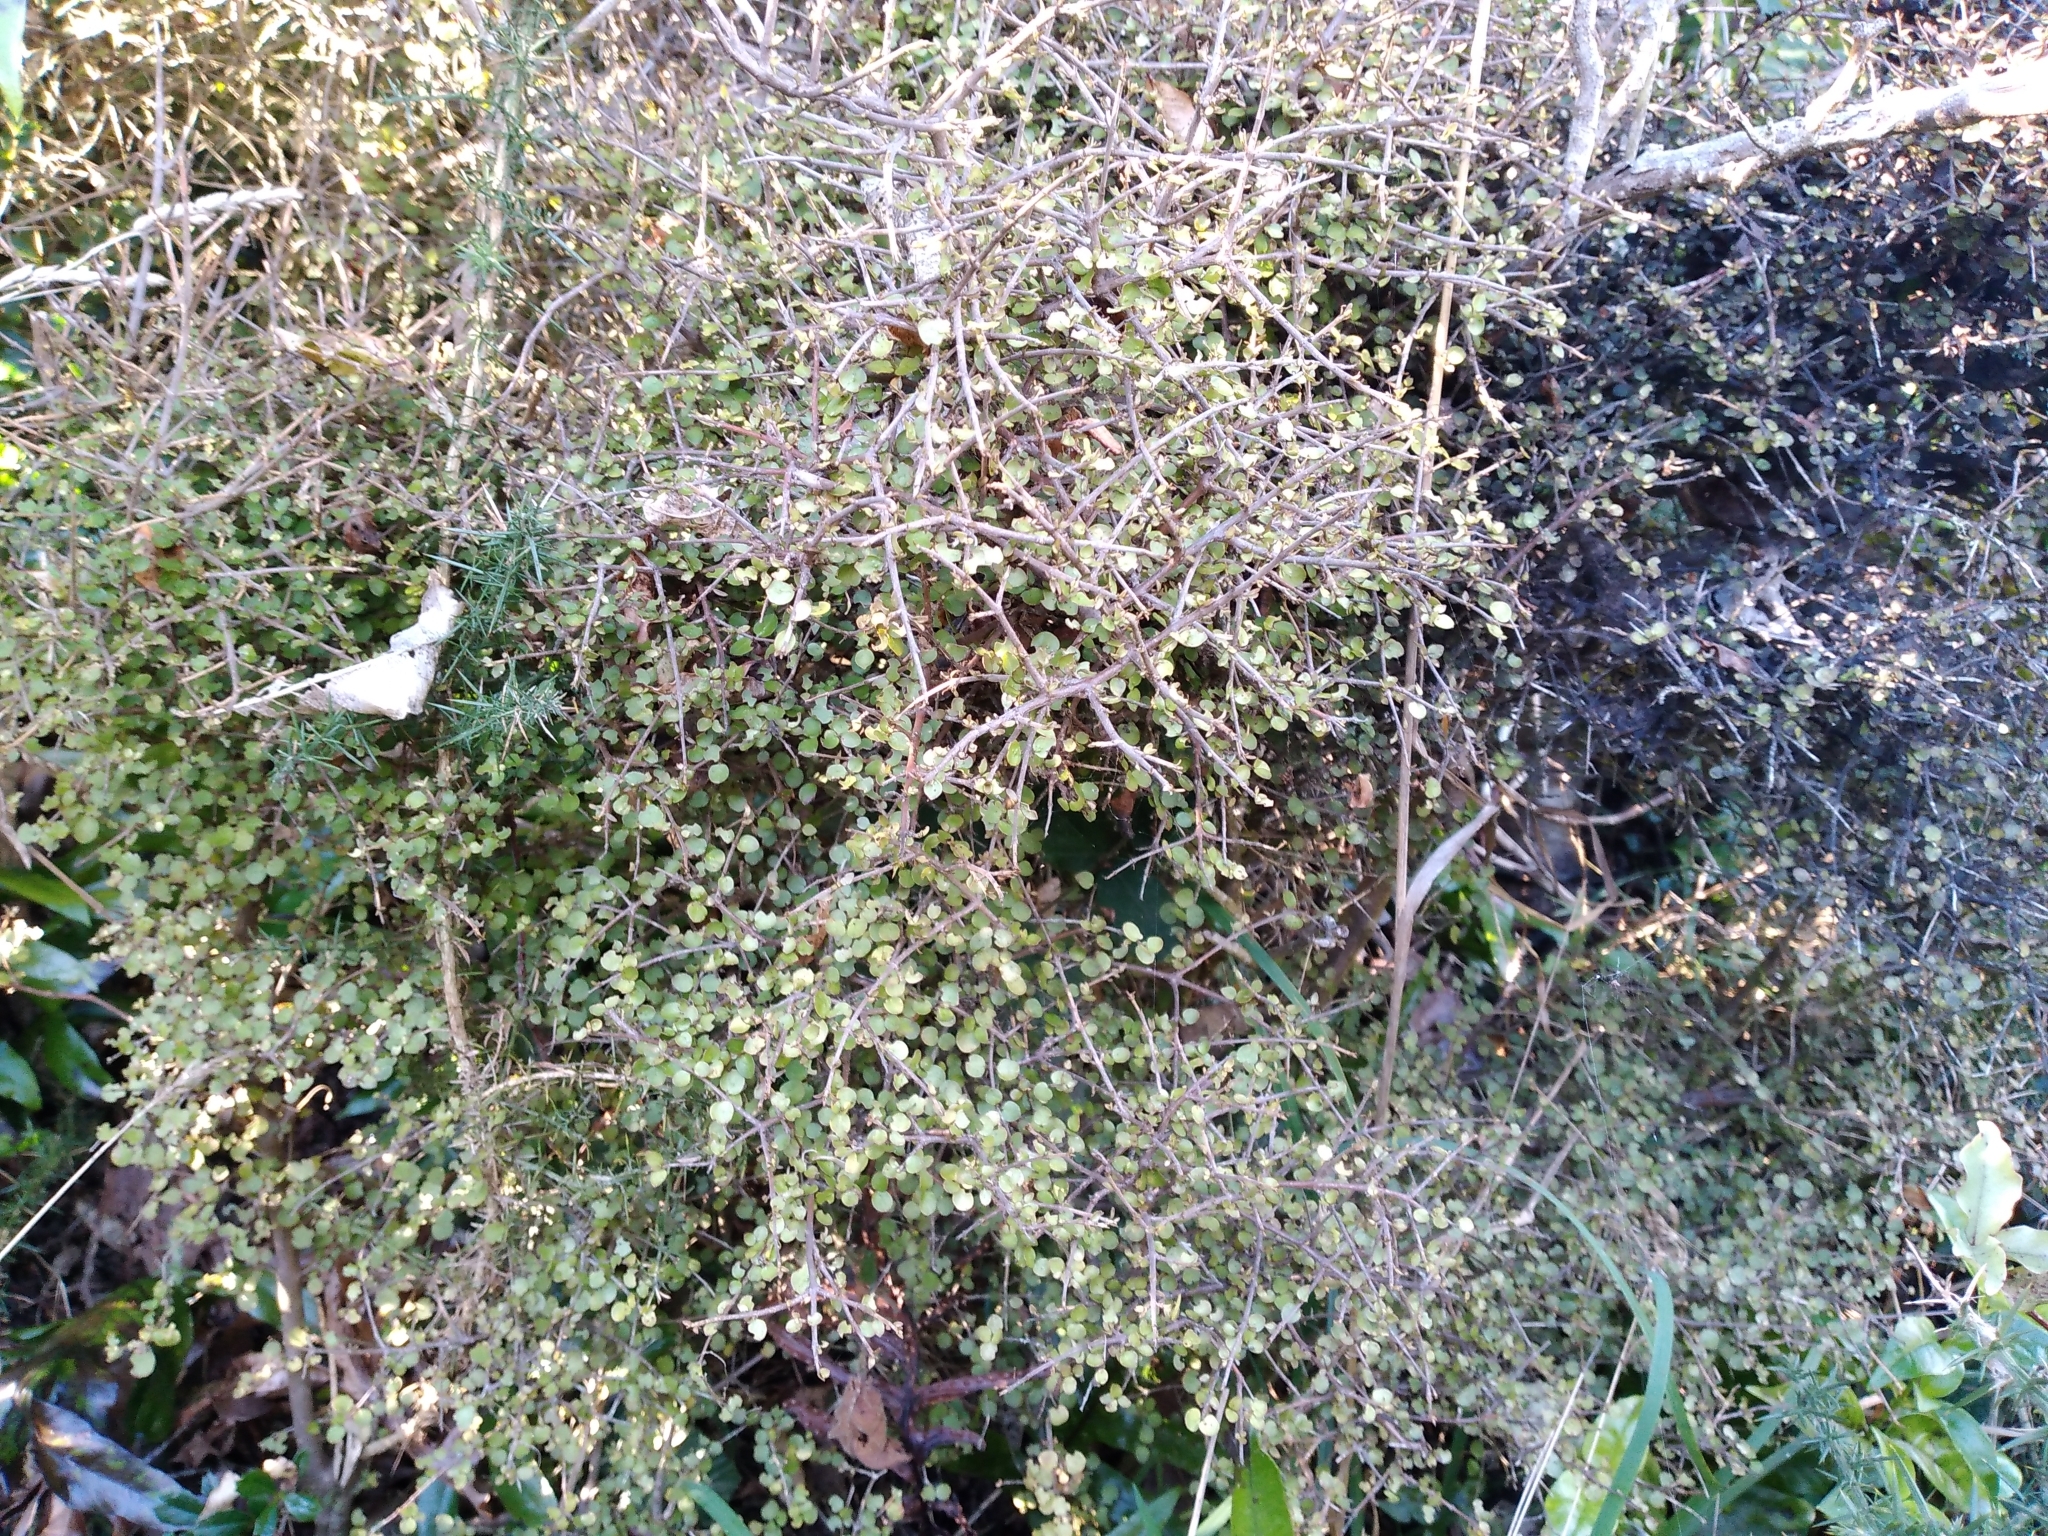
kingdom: Plantae
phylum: Tracheophyta
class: Magnoliopsida
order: Gentianales
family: Rubiaceae
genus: Coprosma
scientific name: Coprosma rhamnoides
